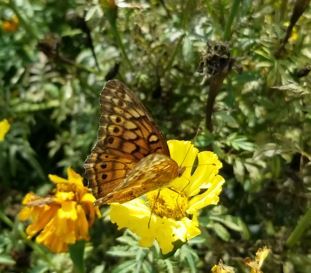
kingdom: Animalia
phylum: Arthropoda
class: Insecta
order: Lepidoptera
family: Nymphalidae
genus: Euptoieta
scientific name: Euptoieta claudia
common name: Variegated fritillary
